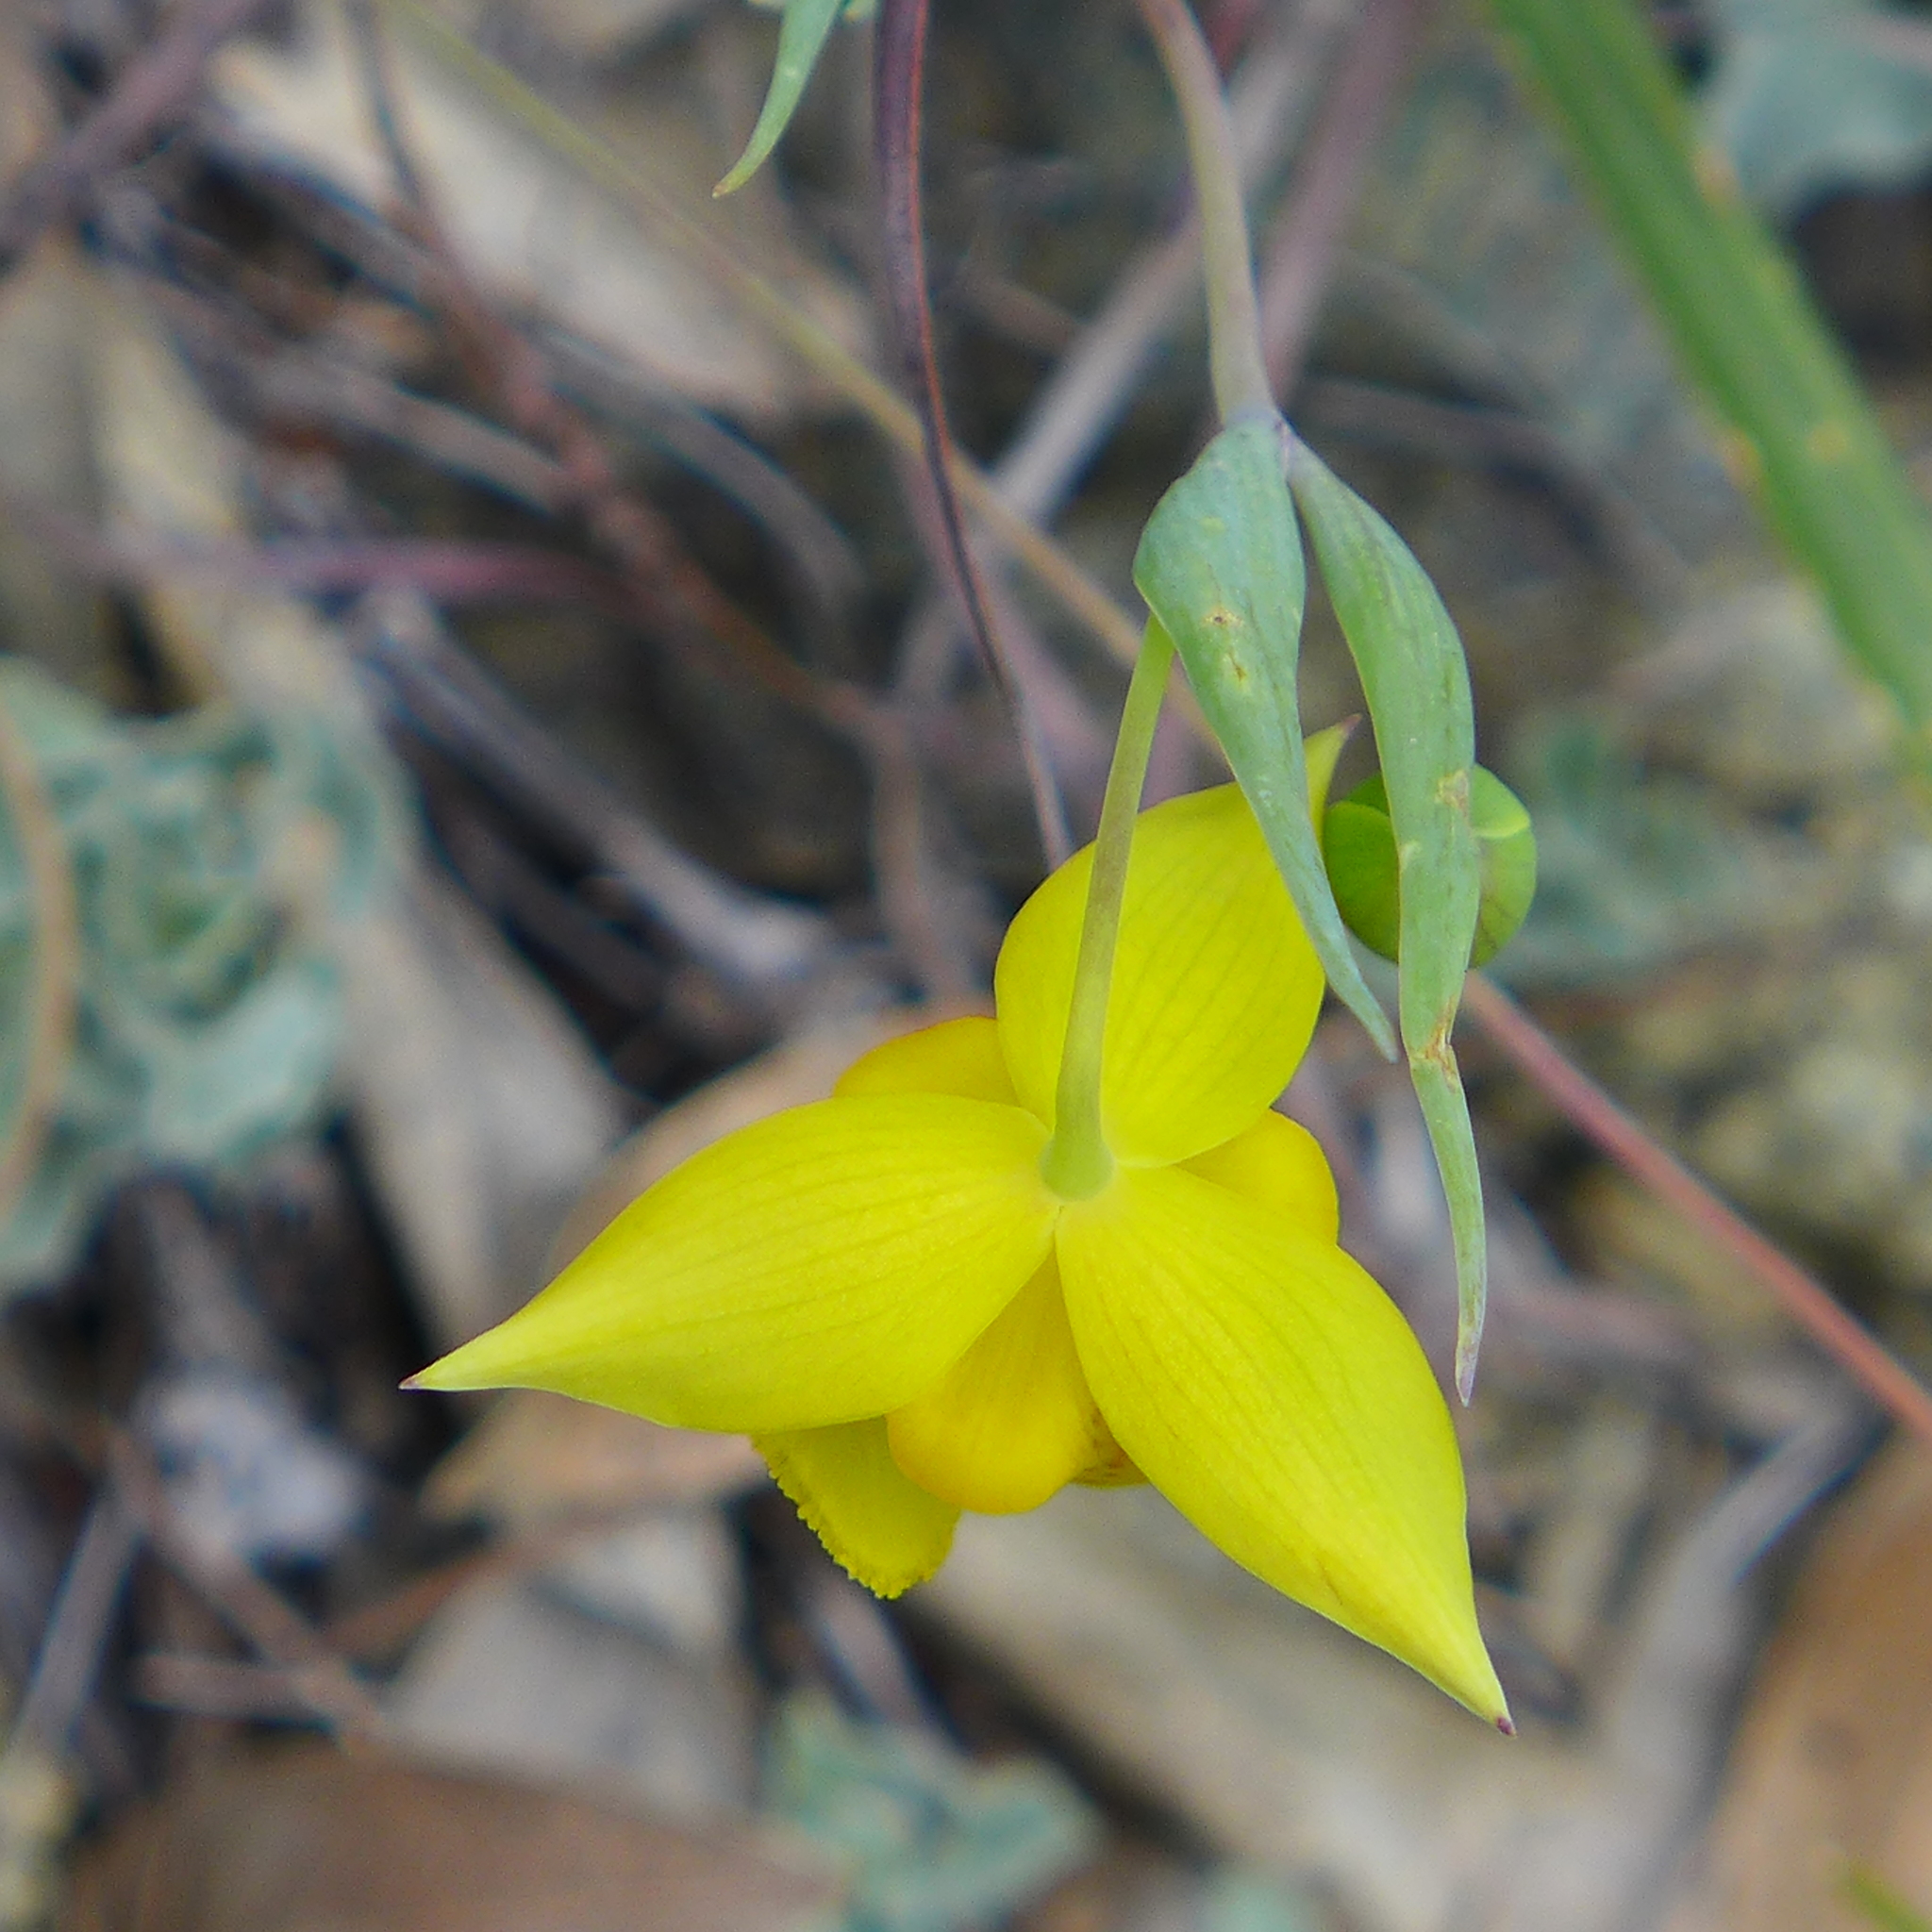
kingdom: Plantae
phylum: Tracheophyta
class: Liliopsida
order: Liliales
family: Liliaceae
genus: Calochortus
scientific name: Calochortus amabilis
